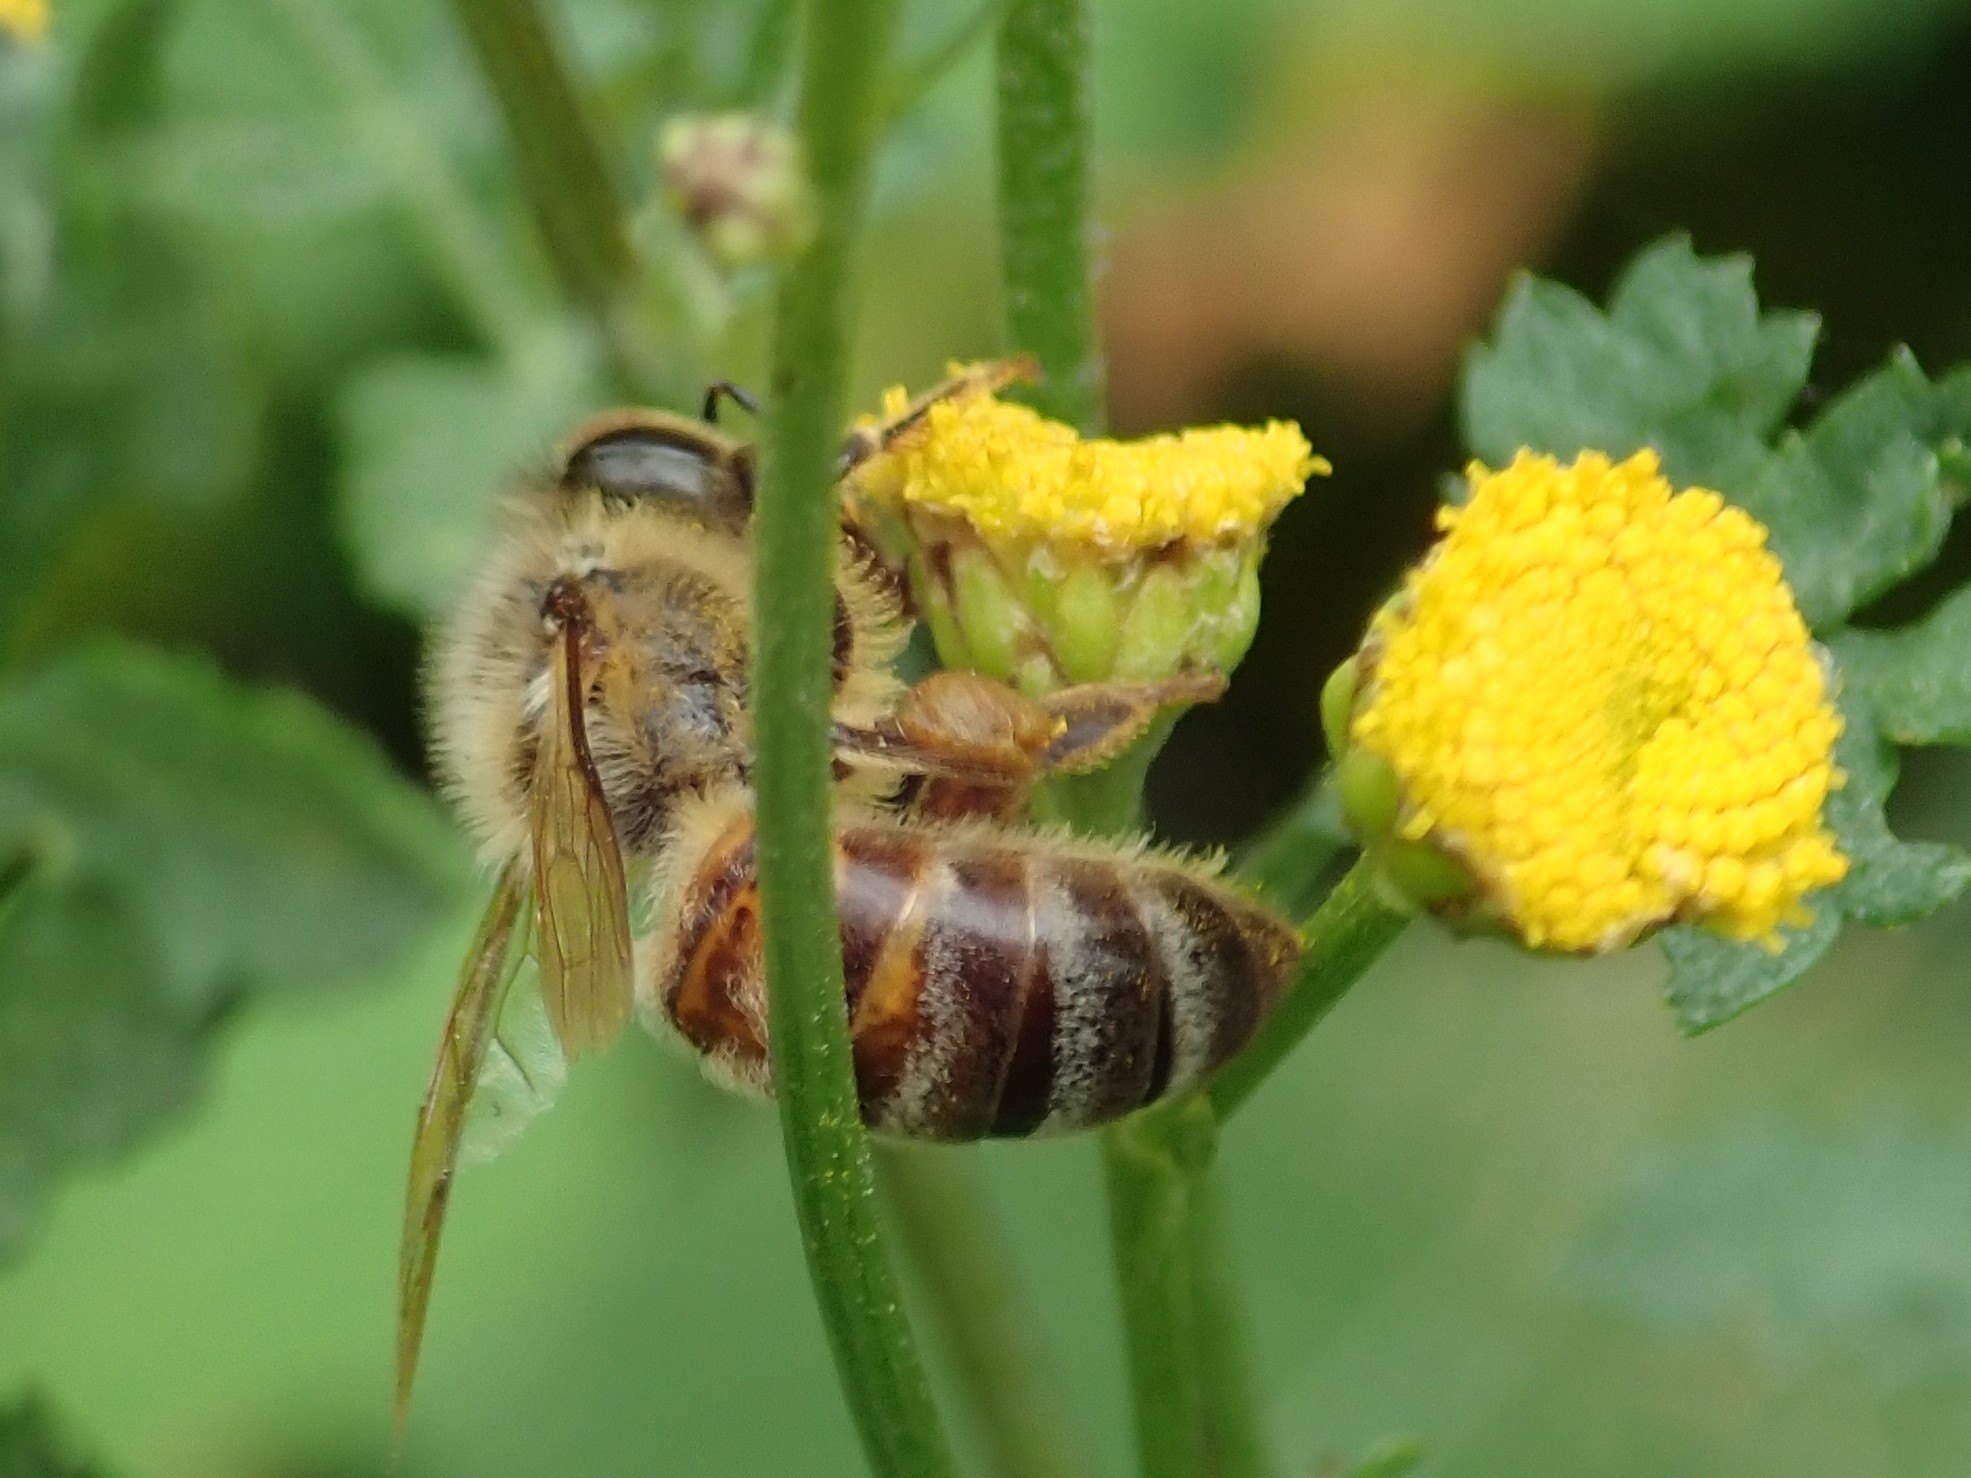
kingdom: Animalia
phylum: Arthropoda
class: Insecta
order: Hymenoptera
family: Apidae
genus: Apis
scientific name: Apis mellifera
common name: Honey bee
